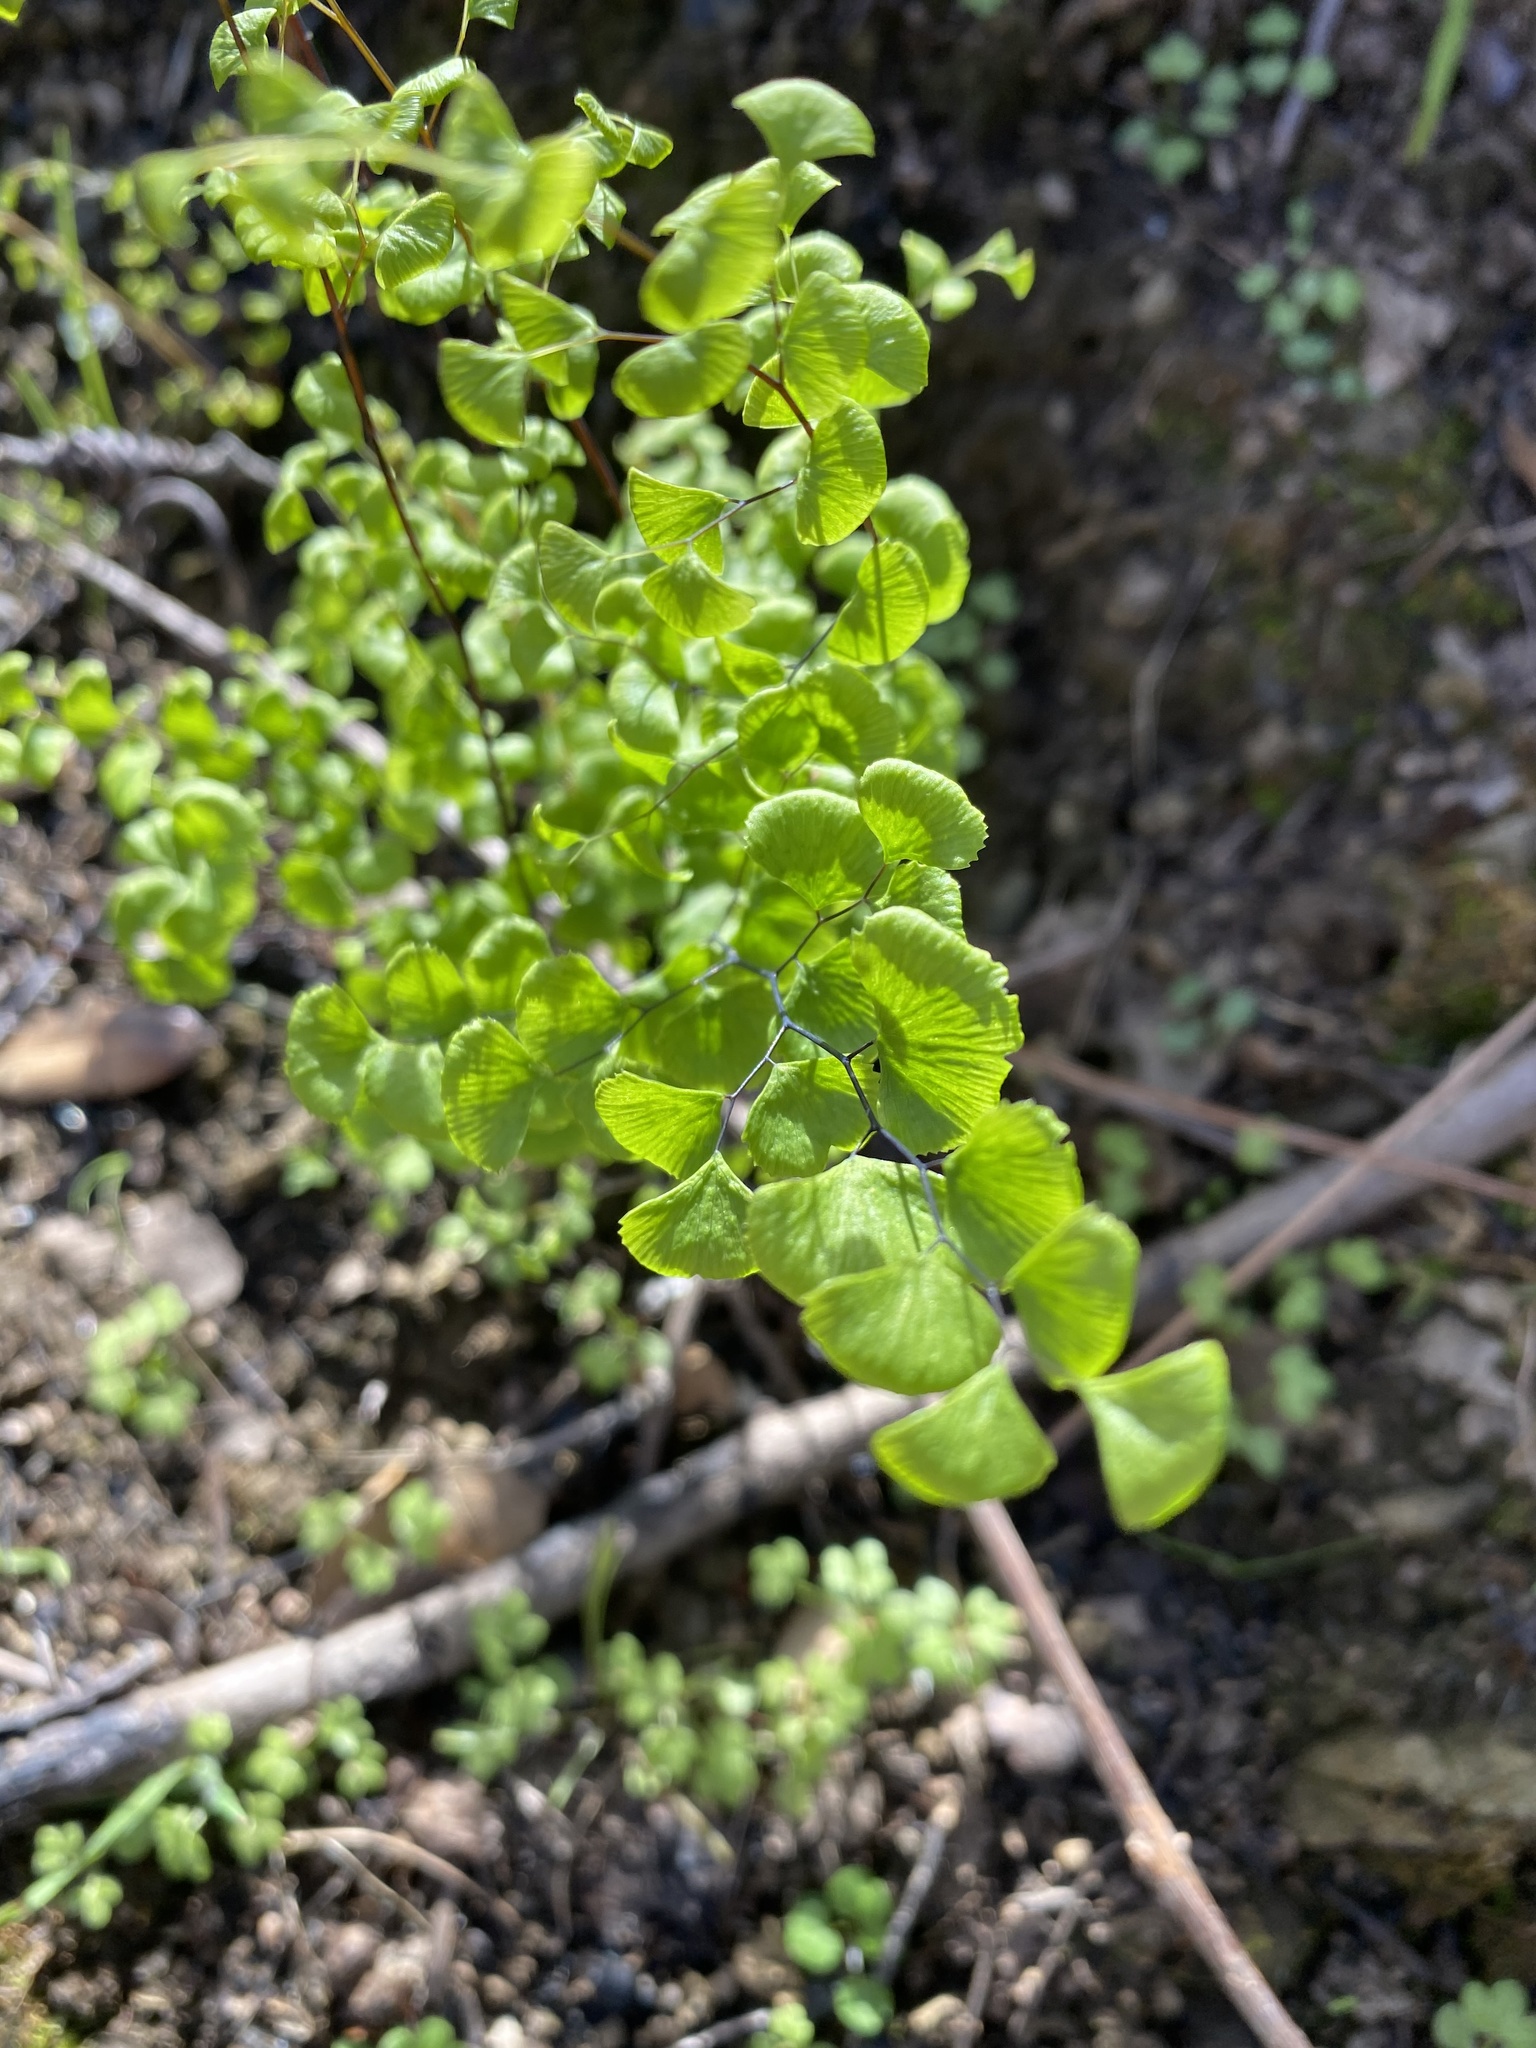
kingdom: Plantae
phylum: Tracheophyta
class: Polypodiopsida
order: Polypodiales
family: Pteridaceae
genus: Adiantum
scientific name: Adiantum jordanii
